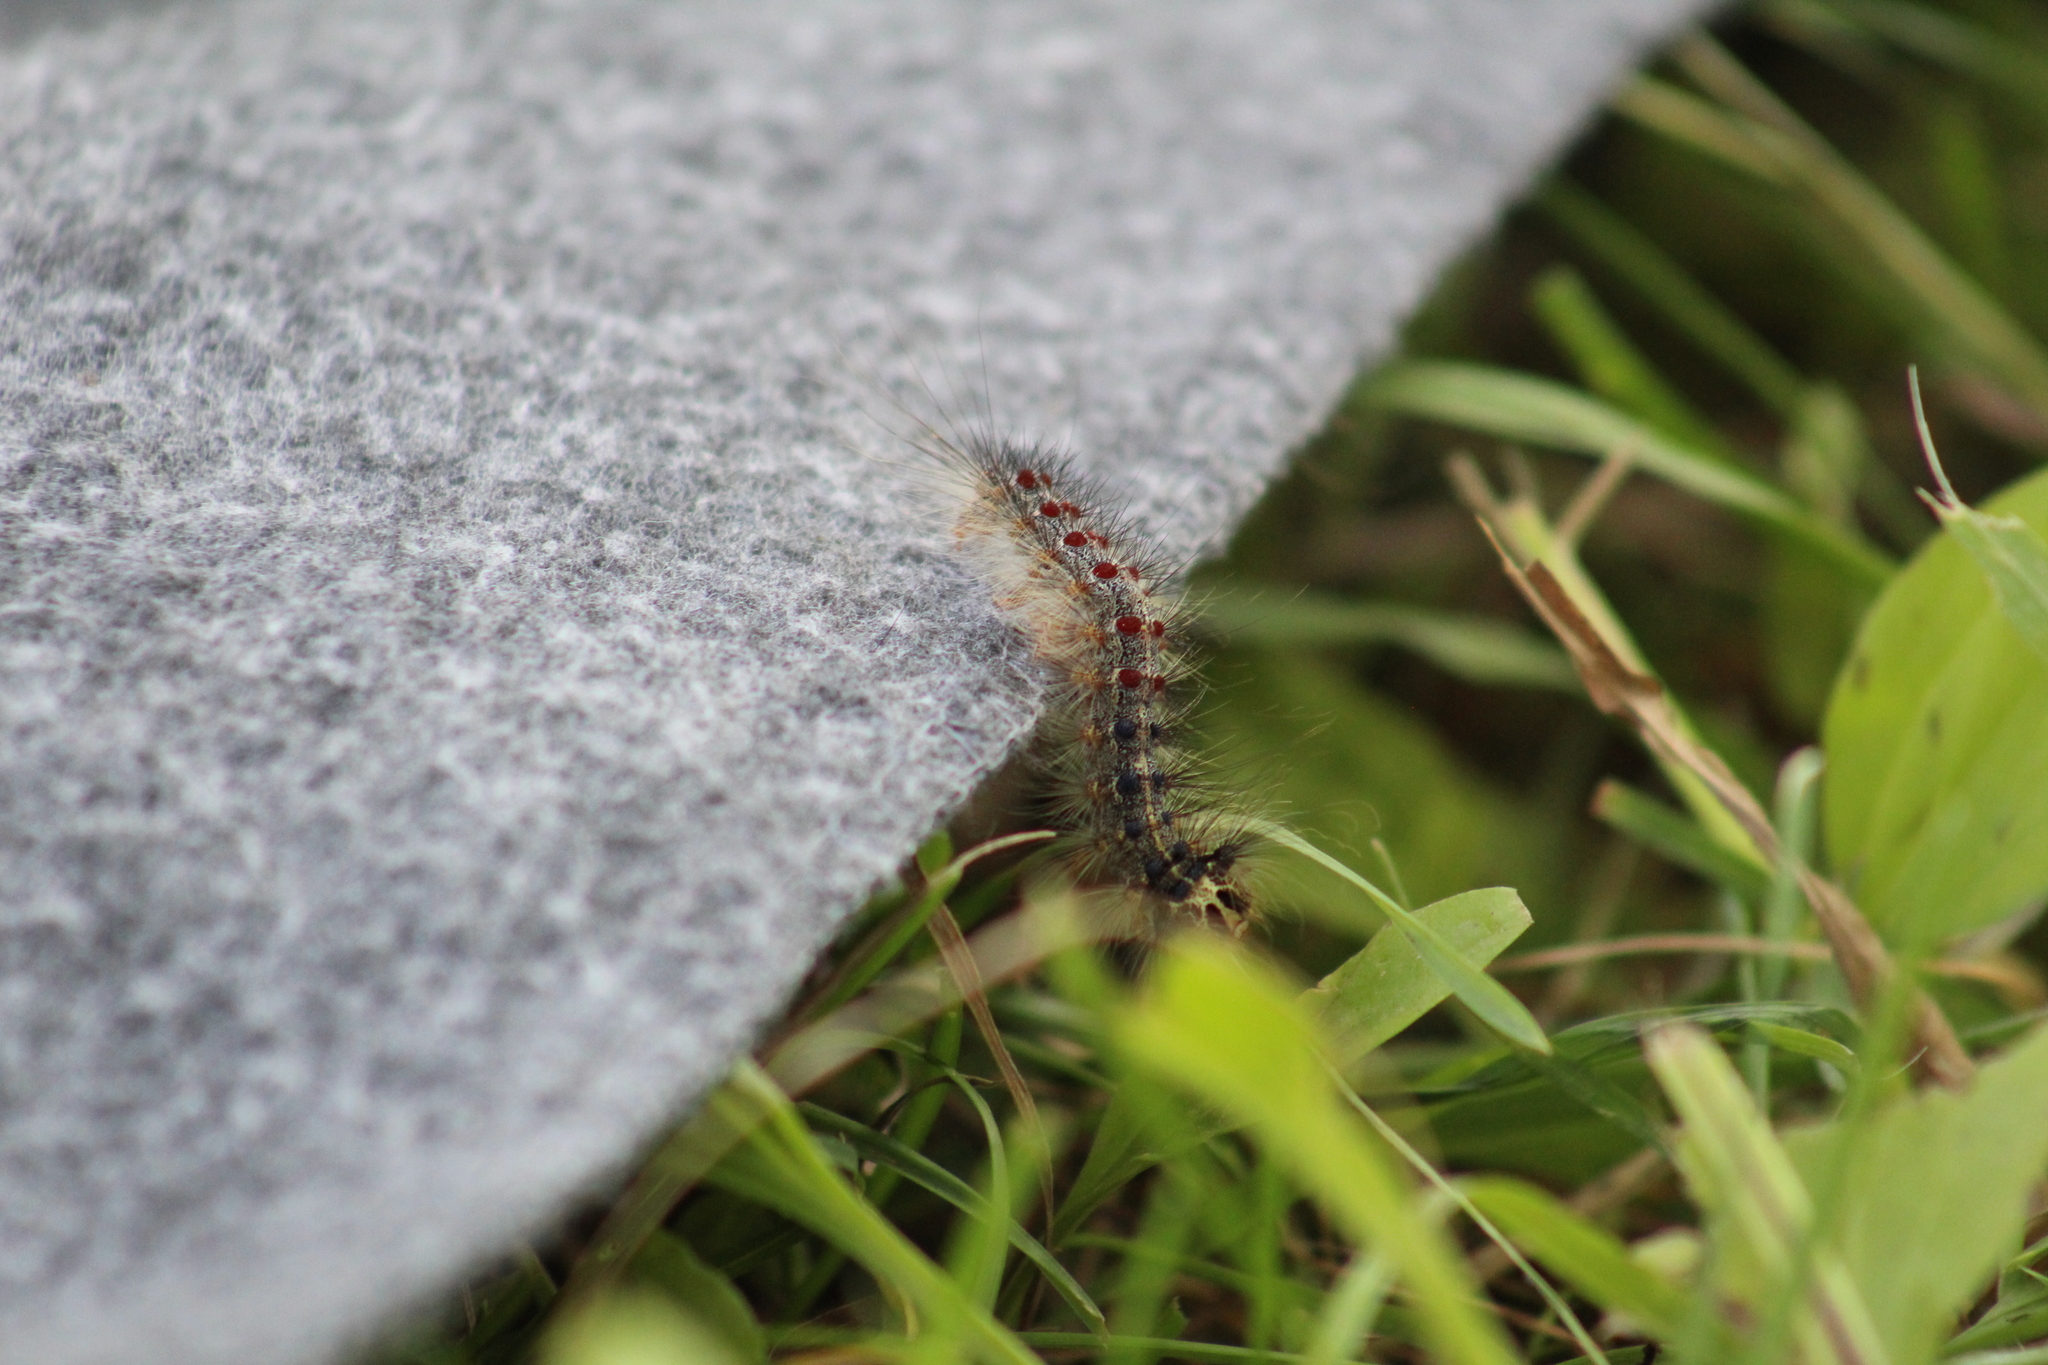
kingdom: Animalia
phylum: Arthropoda
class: Insecta
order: Lepidoptera
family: Erebidae
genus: Lymantria
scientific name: Lymantria dispar
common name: Gypsy moth
